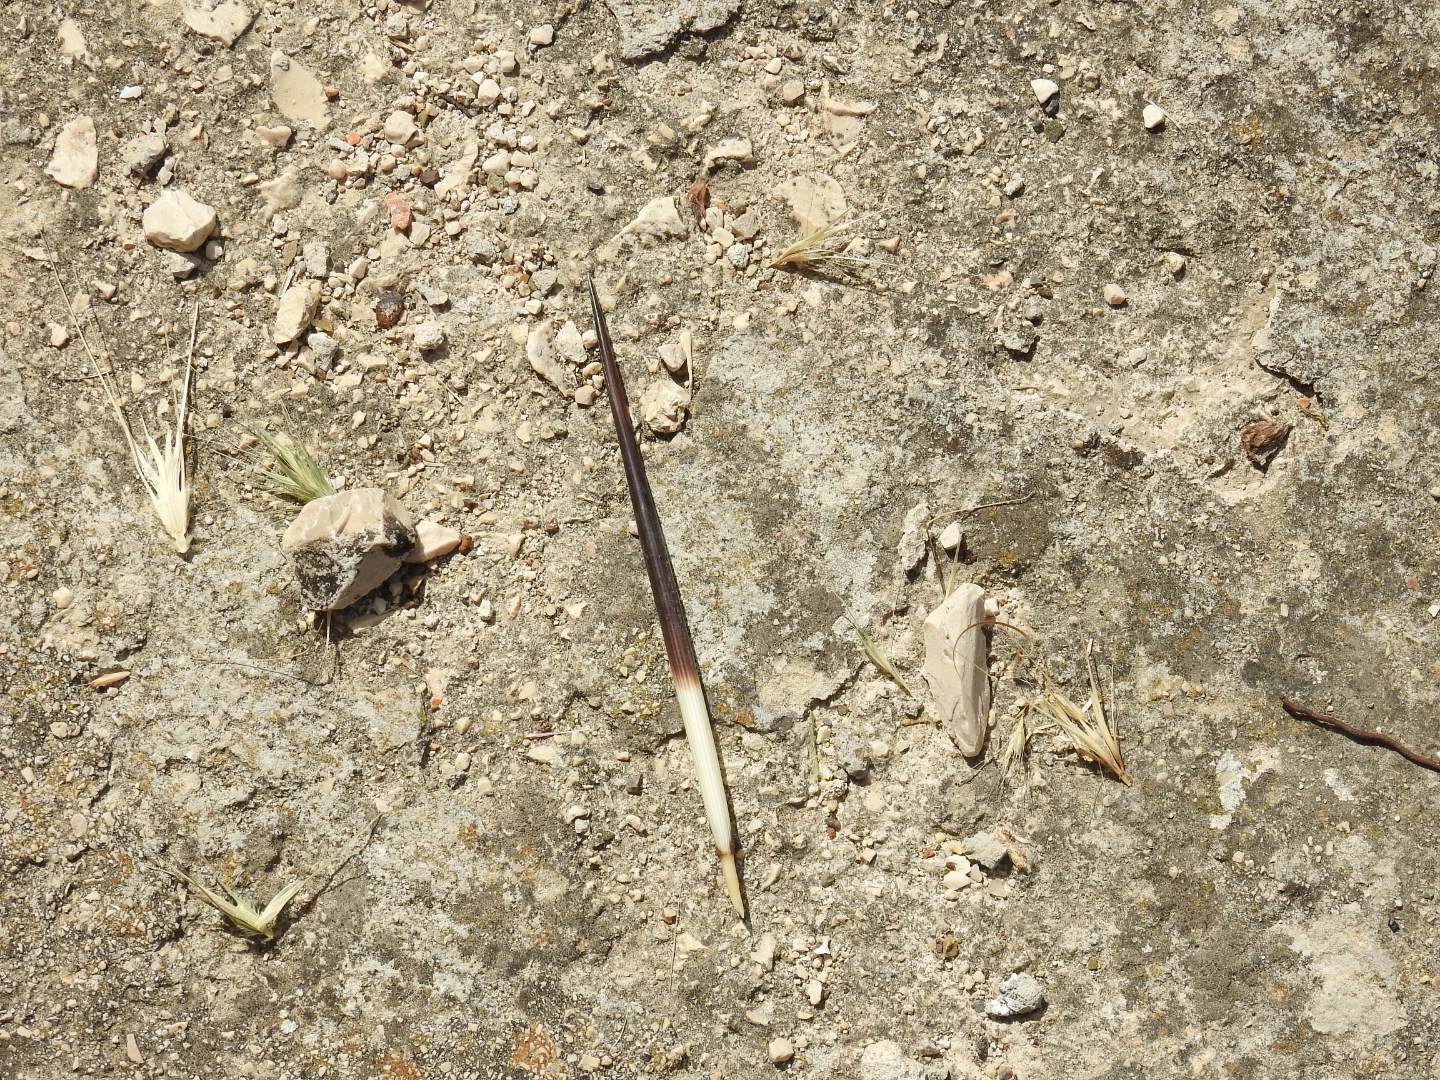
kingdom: Animalia
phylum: Chordata
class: Mammalia
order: Rodentia
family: Hystricidae
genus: Hystrix
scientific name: Hystrix cristata
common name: Crested porcupine
